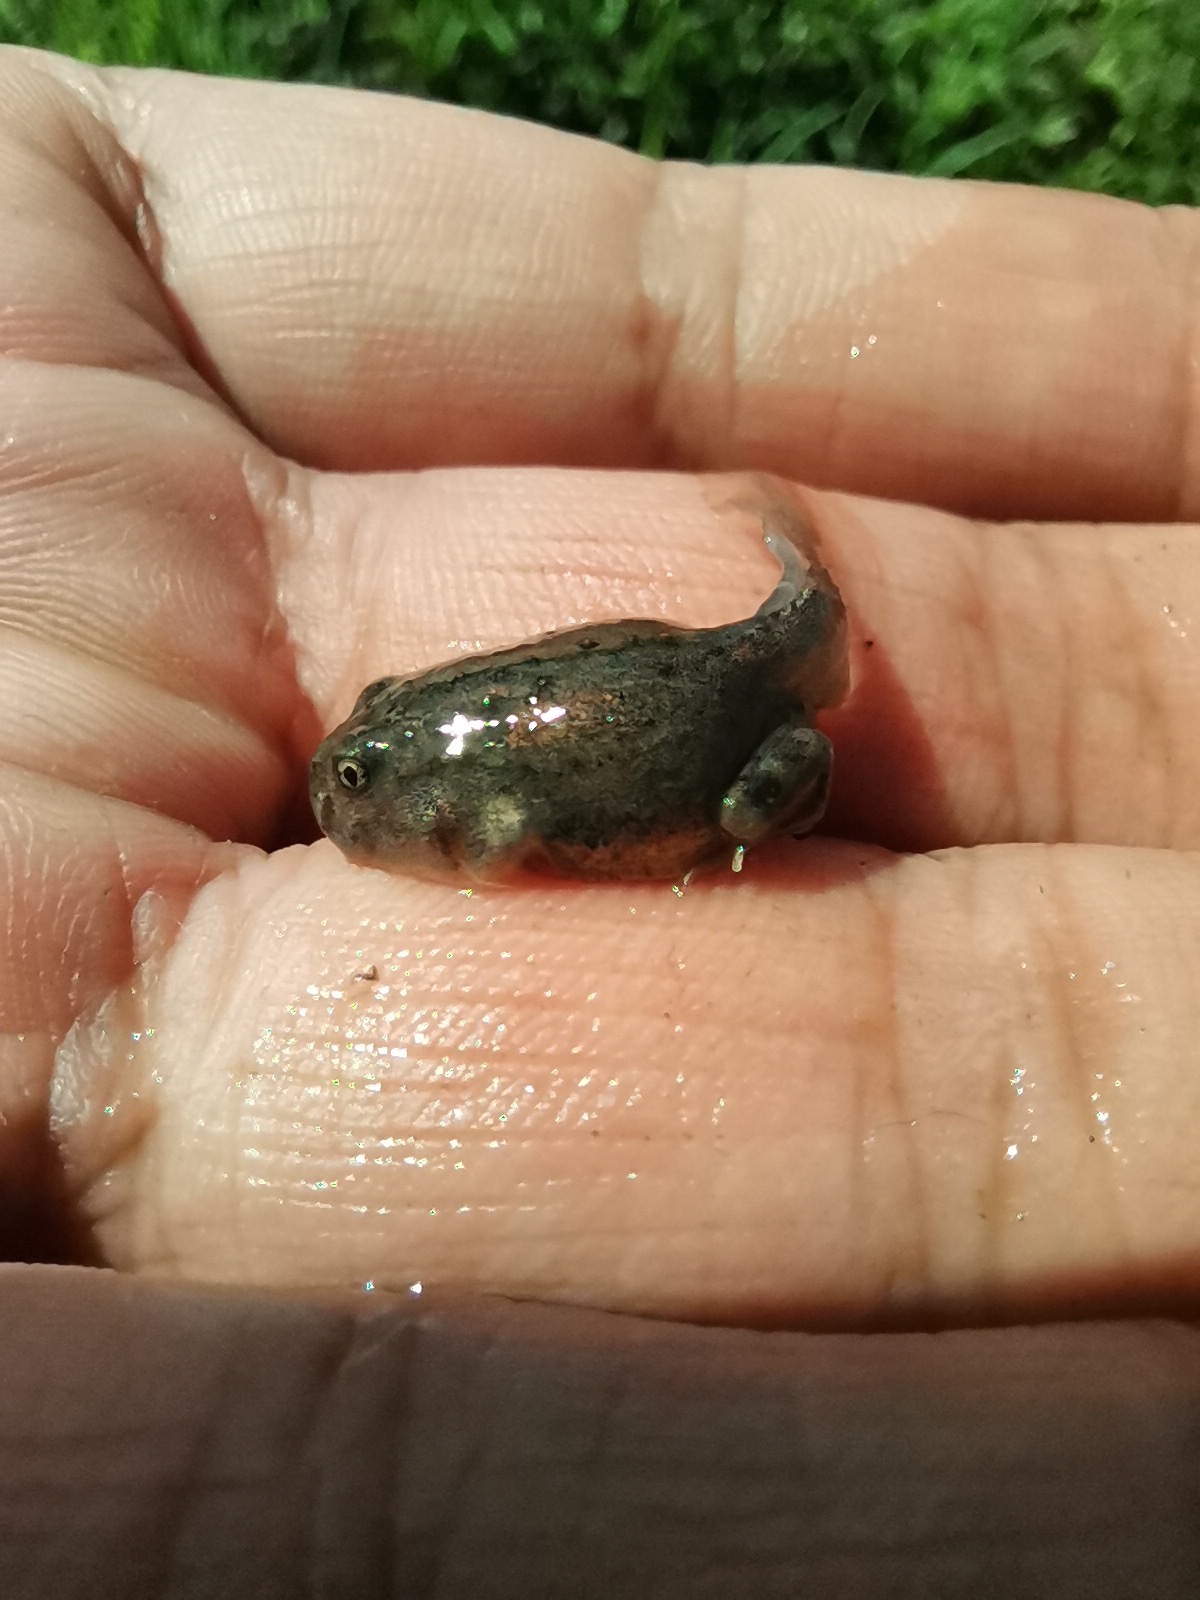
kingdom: Animalia
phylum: Chordata
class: Amphibia
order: Anura
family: Scaphiopodidae
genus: Spea
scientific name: Spea multiplicata
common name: Mexican spadefoot
